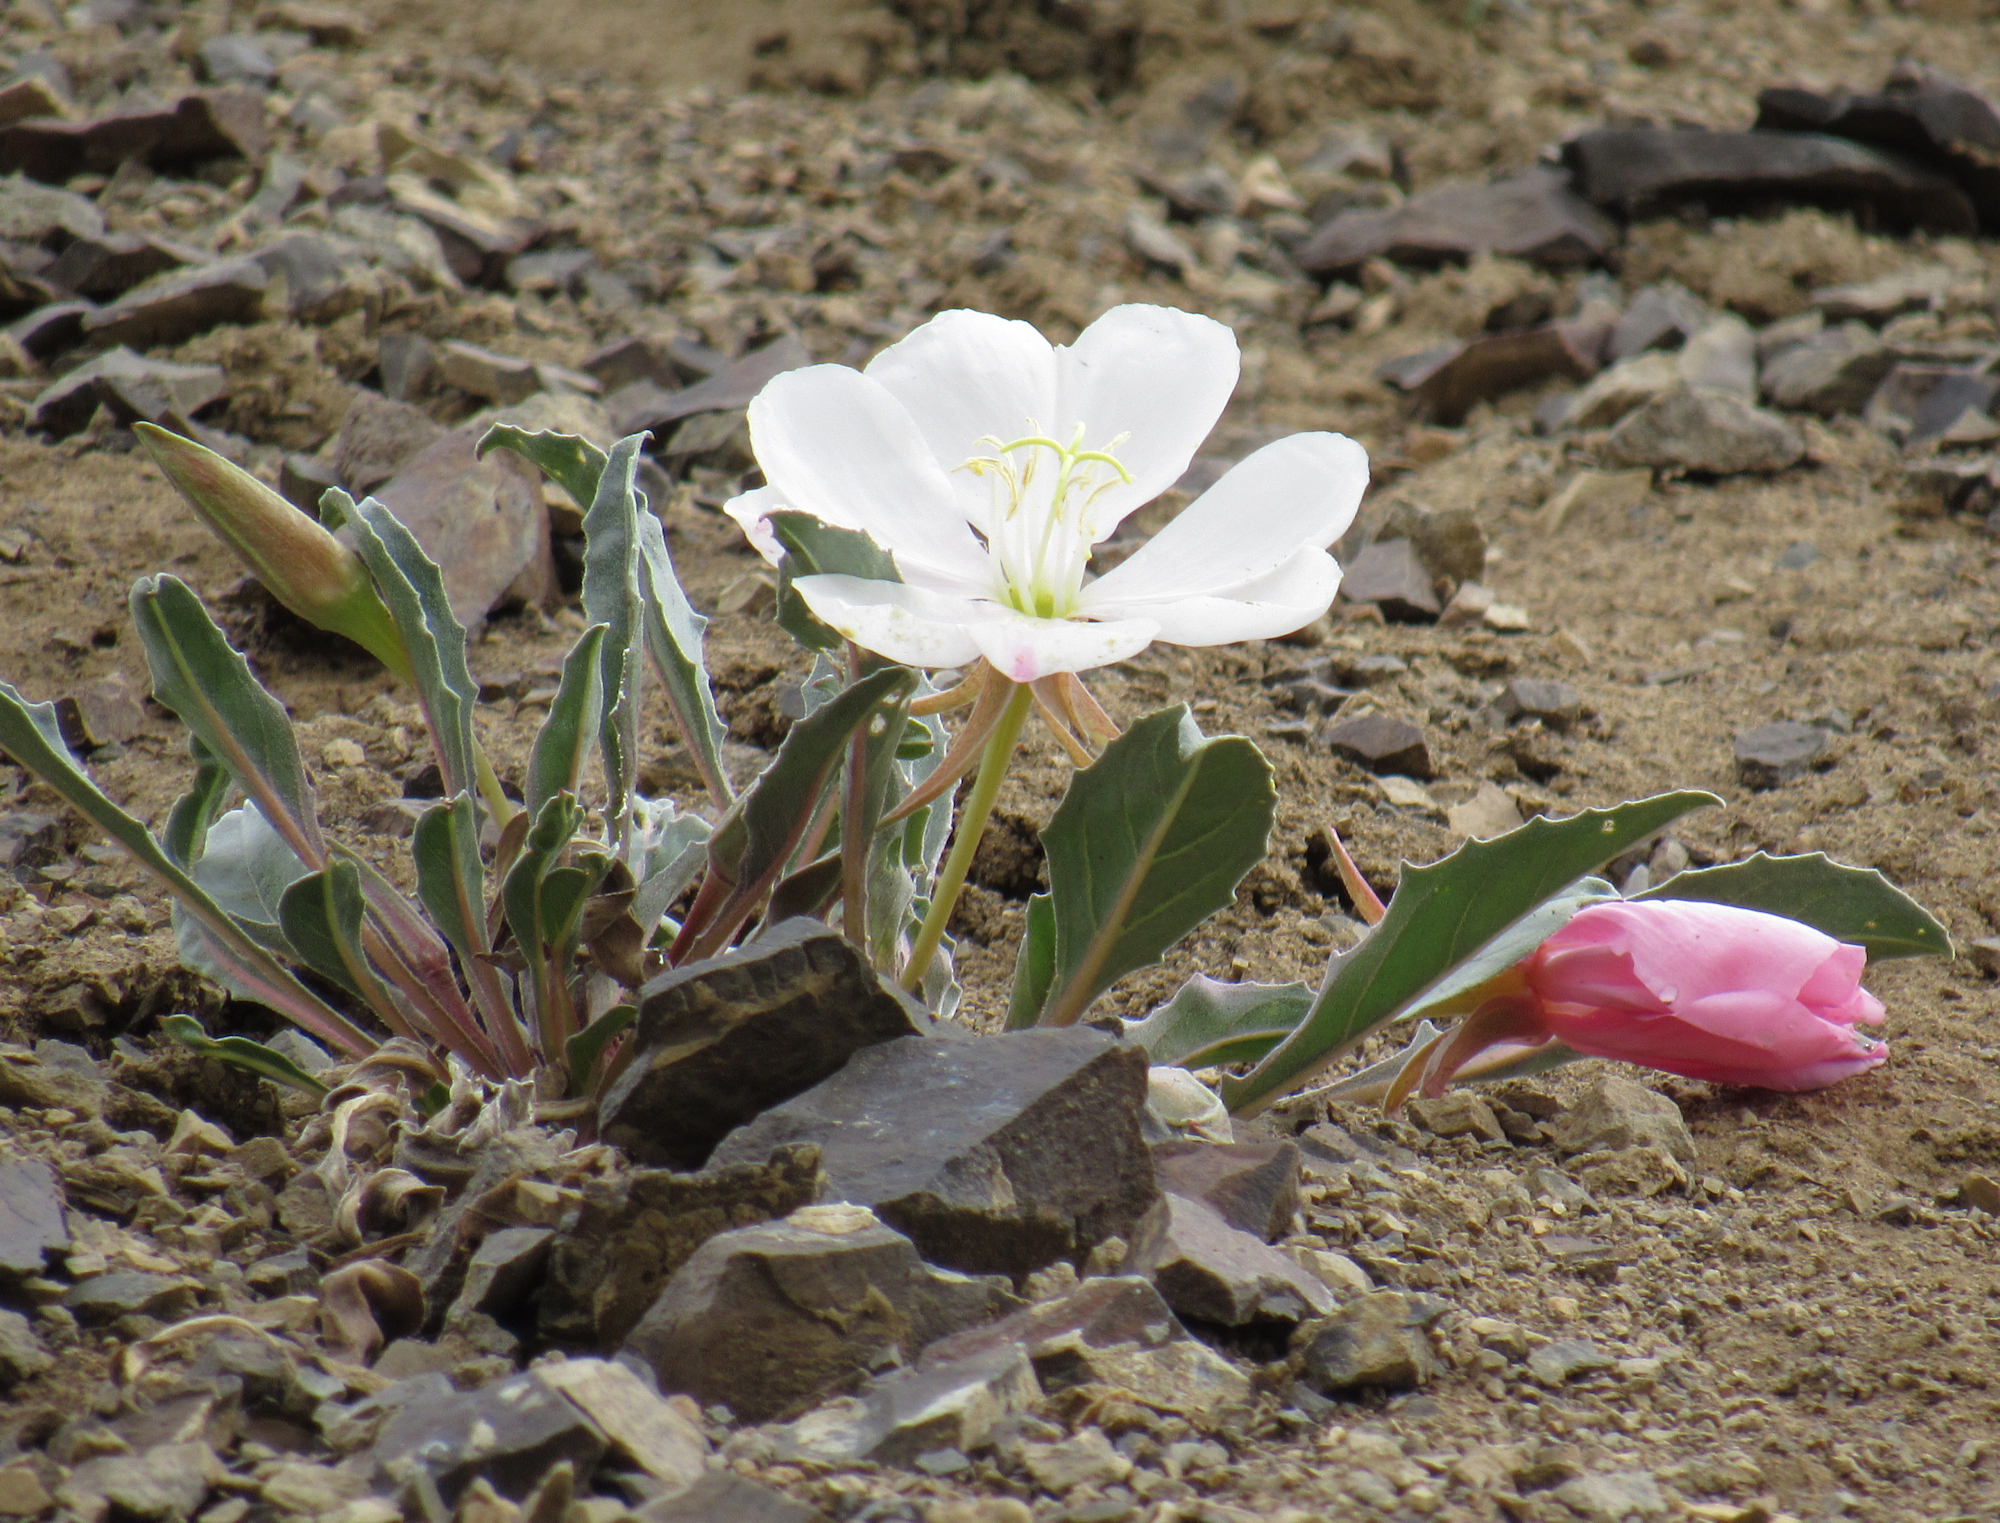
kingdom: Plantae
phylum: Tracheophyta
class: Magnoliopsida
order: Myrtales
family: Onagraceae
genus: Oenothera
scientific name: Oenothera cespitosa
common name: Tufted evening-primrose
